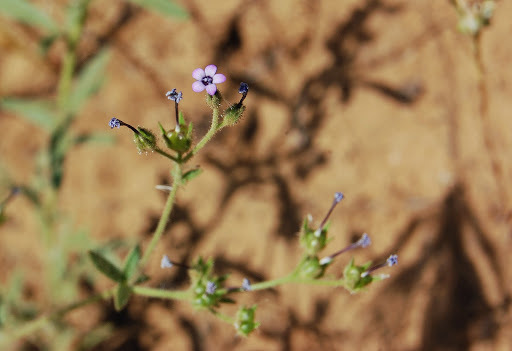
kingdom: Plantae
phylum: Tracheophyta
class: Magnoliopsida
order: Ericales
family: Polemoniaceae
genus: Allophyllum
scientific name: Allophyllum gilioides
